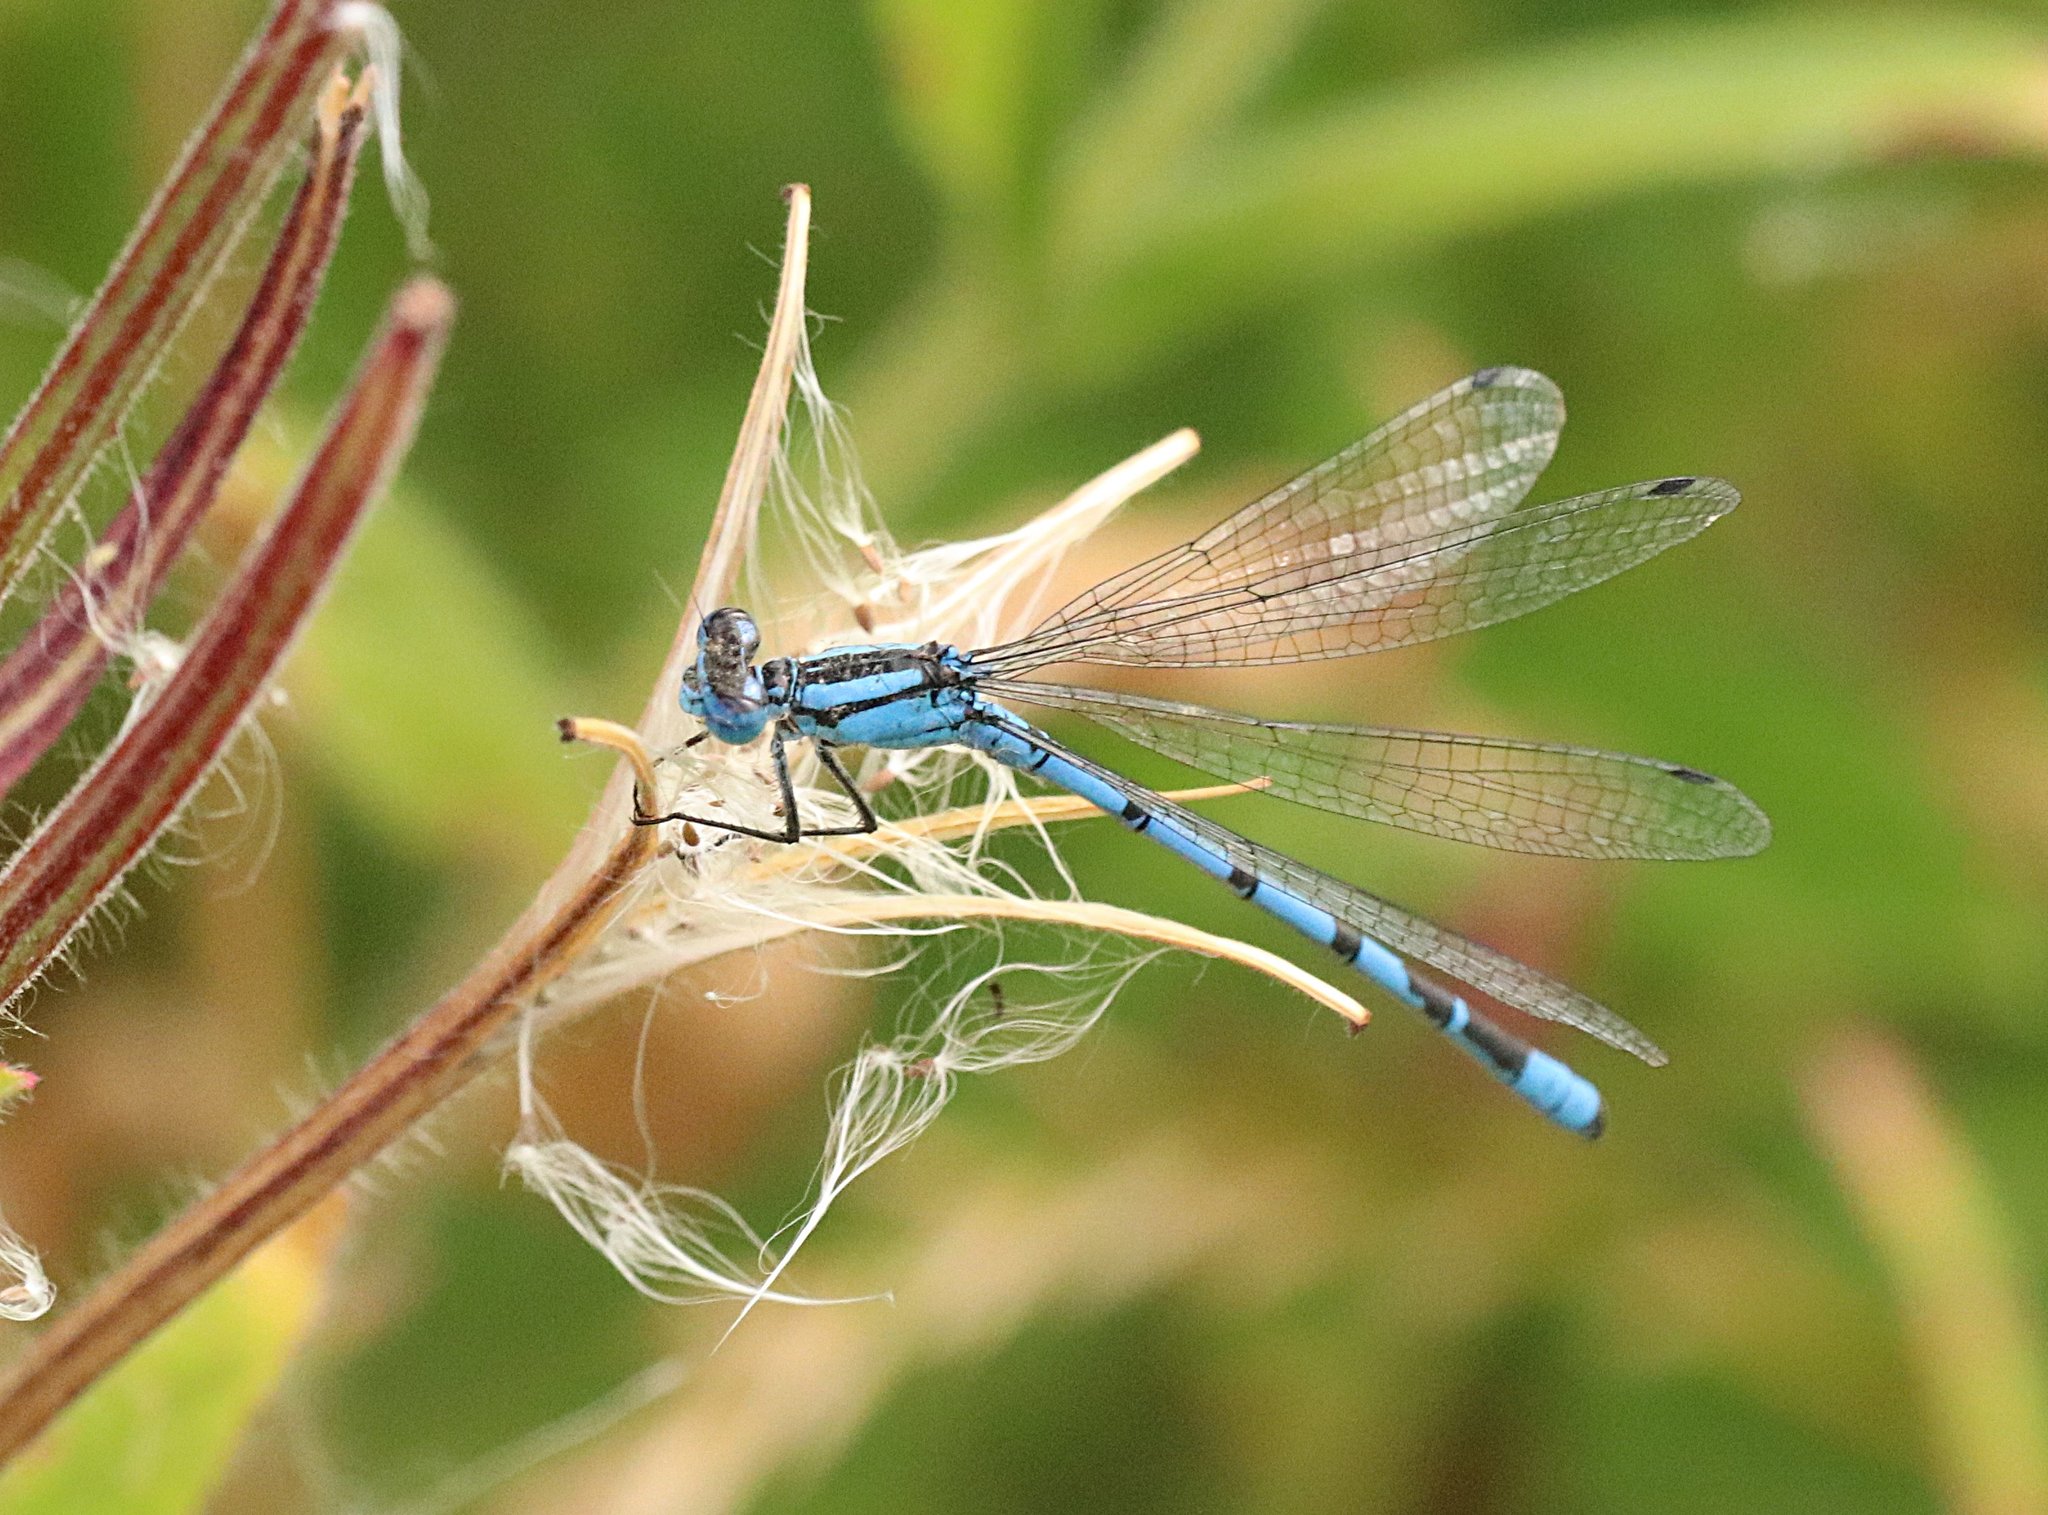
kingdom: Animalia
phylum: Arthropoda
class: Insecta
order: Odonata
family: Coenagrionidae
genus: Enallagma
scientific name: Enallagma cyathigerum
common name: Common blue damselfly
